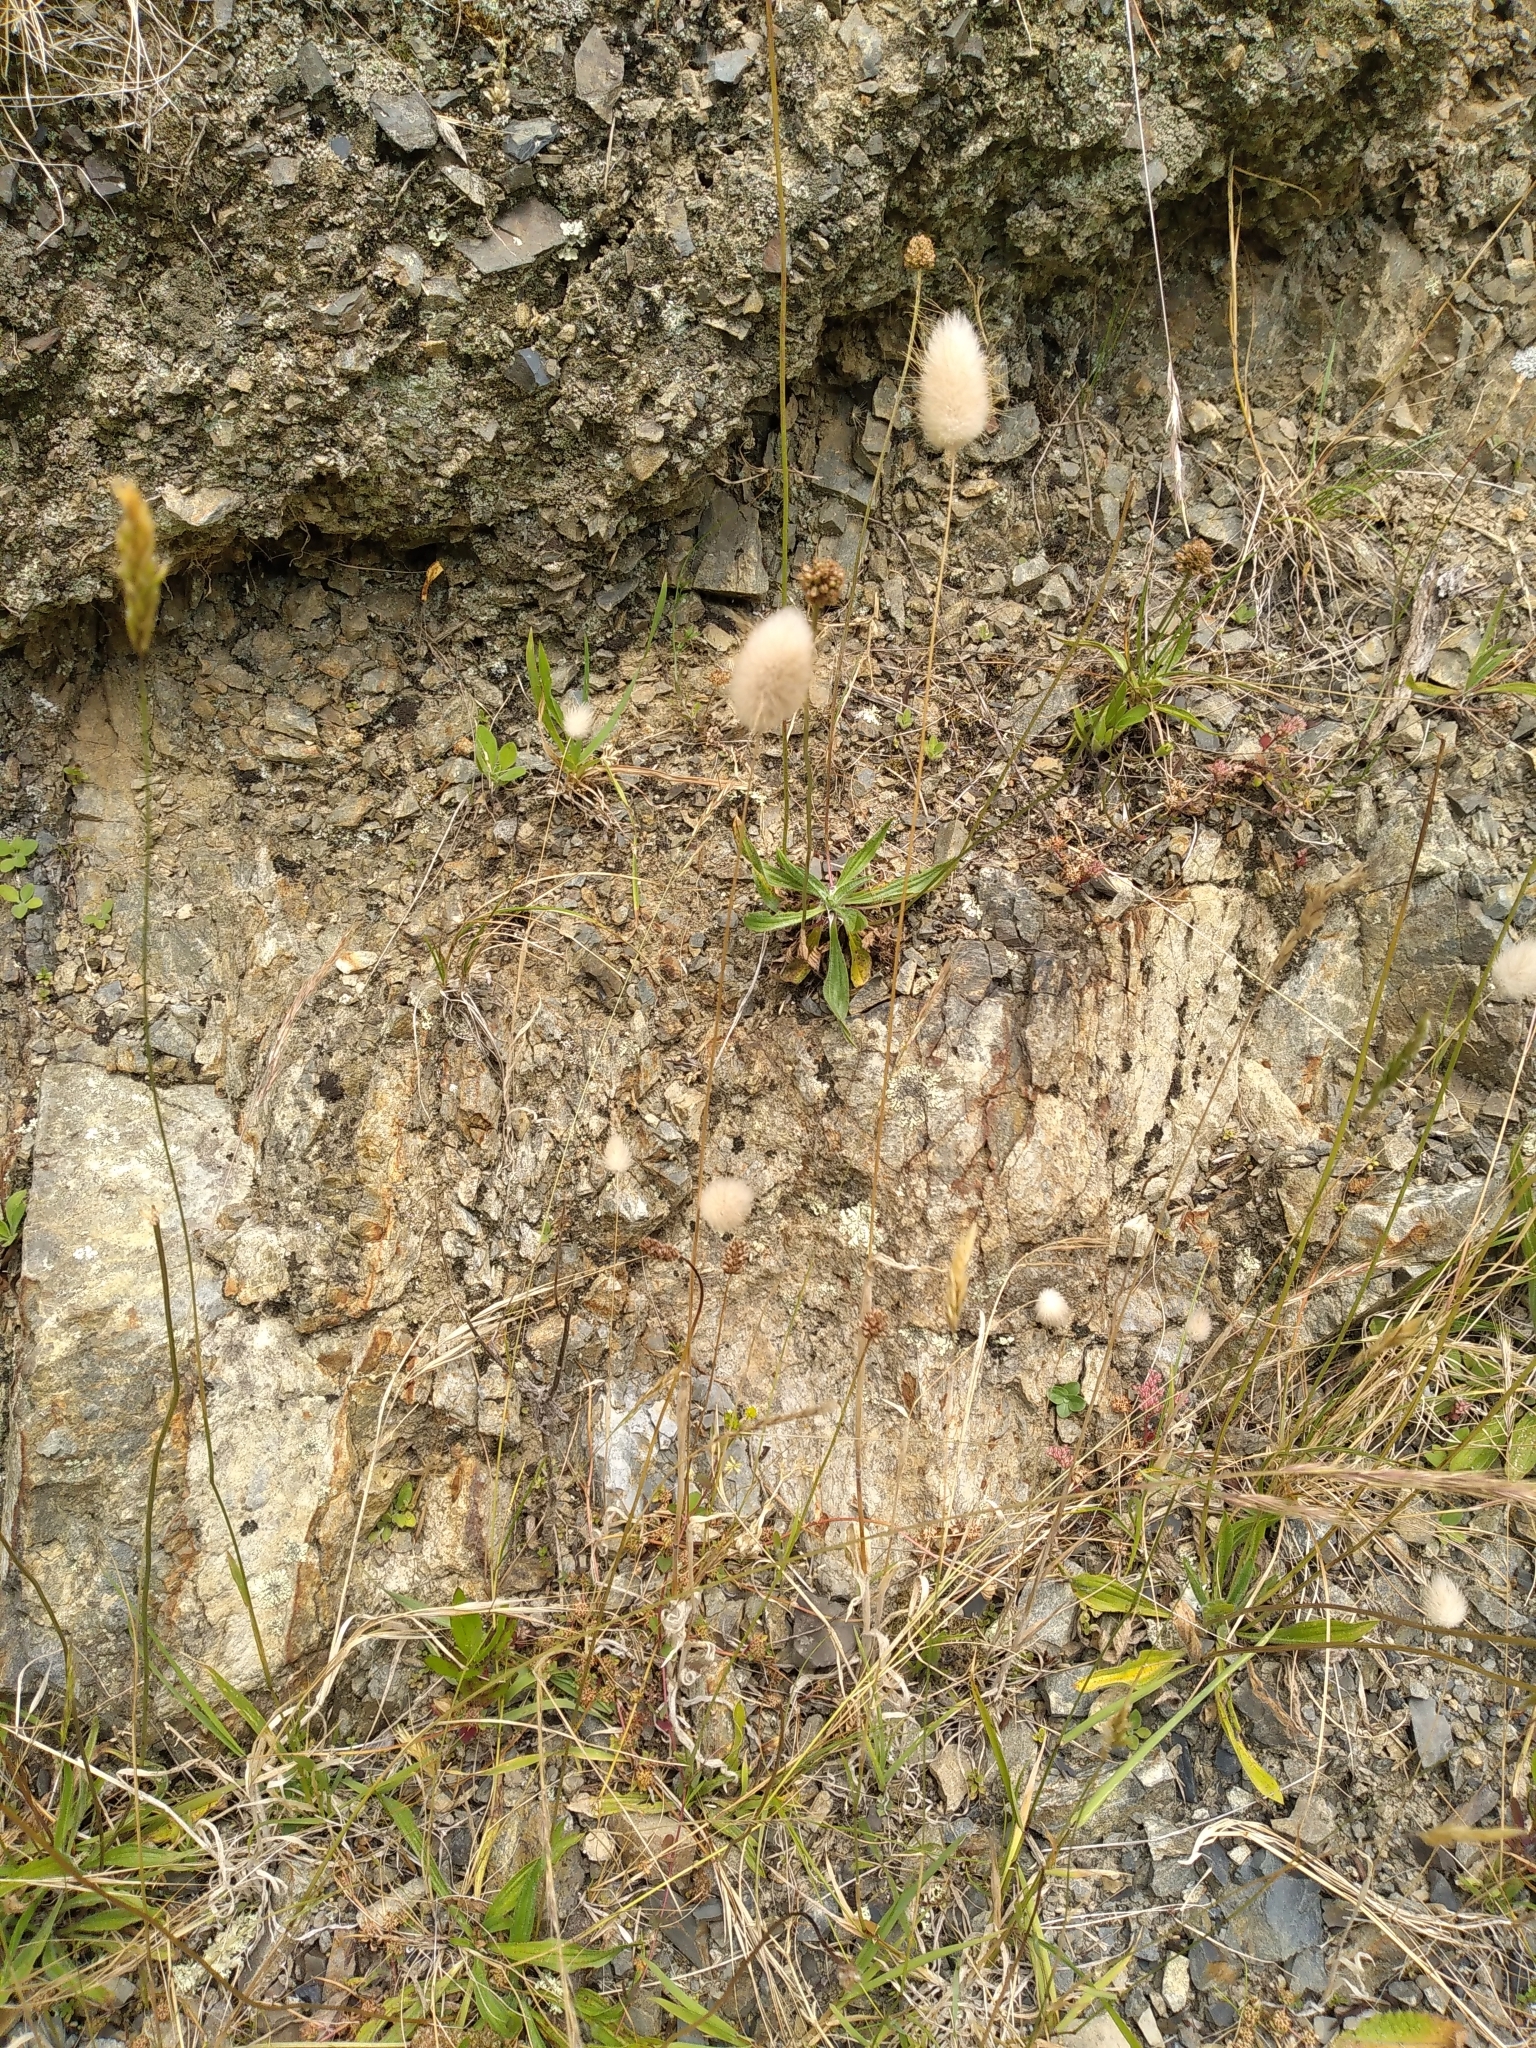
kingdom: Plantae
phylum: Tracheophyta
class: Liliopsida
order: Poales
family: Poaceae
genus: Lagurus
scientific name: Lagurus ovatus
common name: Hare's-tail
